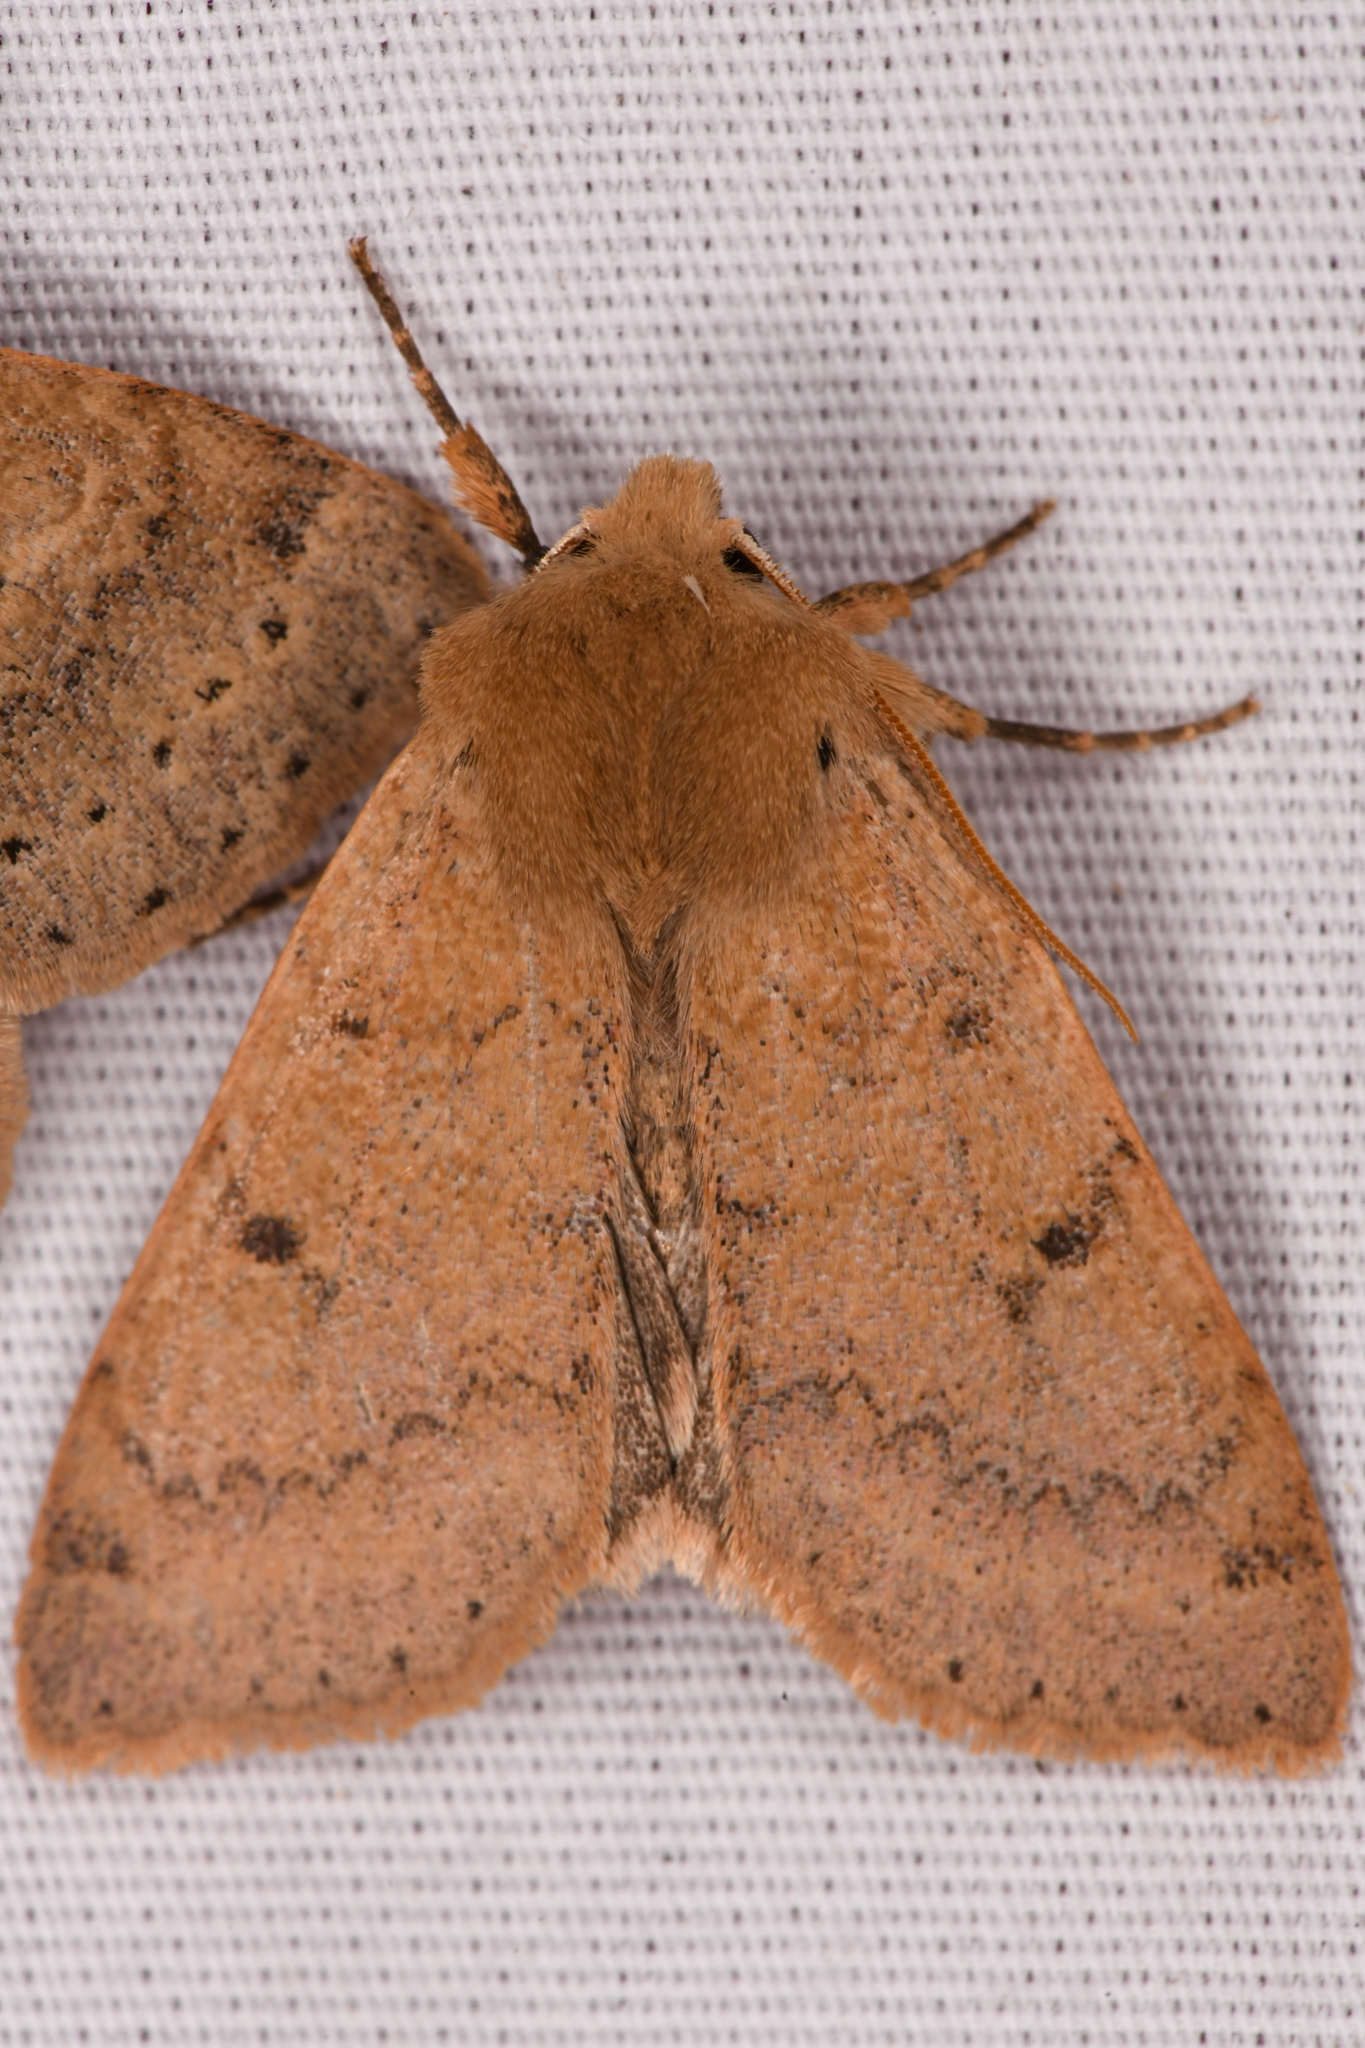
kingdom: Animalia
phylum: Arthropoda
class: Insecta
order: Lepidoptera
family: Noctuidae
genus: Orthosia
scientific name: Orthosia arthrolita
